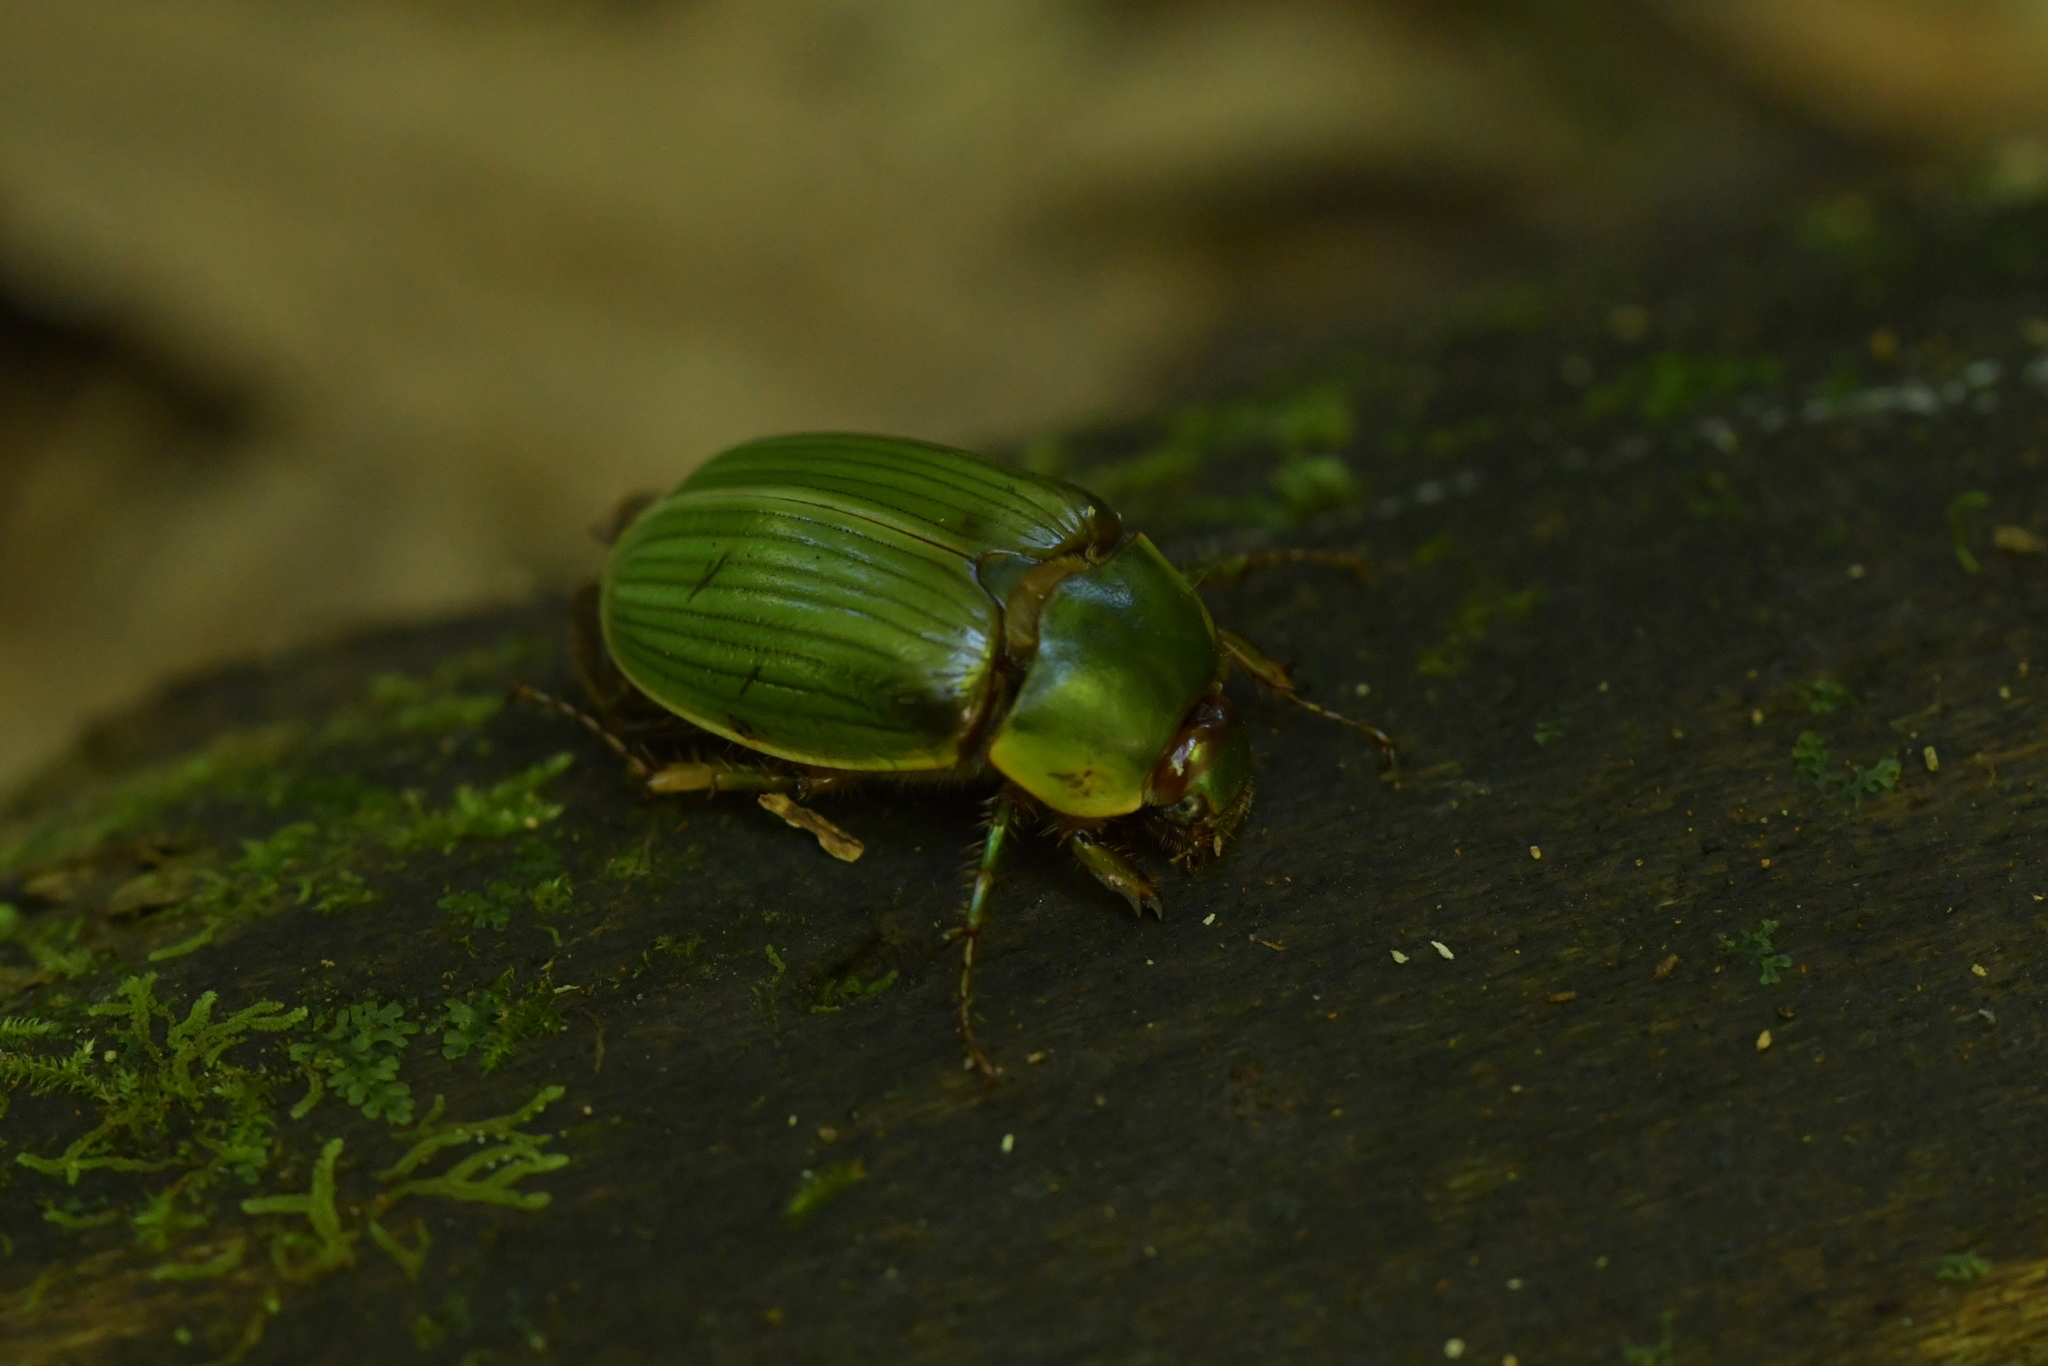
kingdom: Animalia
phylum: Arthropoda
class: Insecta
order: Coleoptera
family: Scarabaeidae
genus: Stethaspis
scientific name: Stethaspis longicornis
